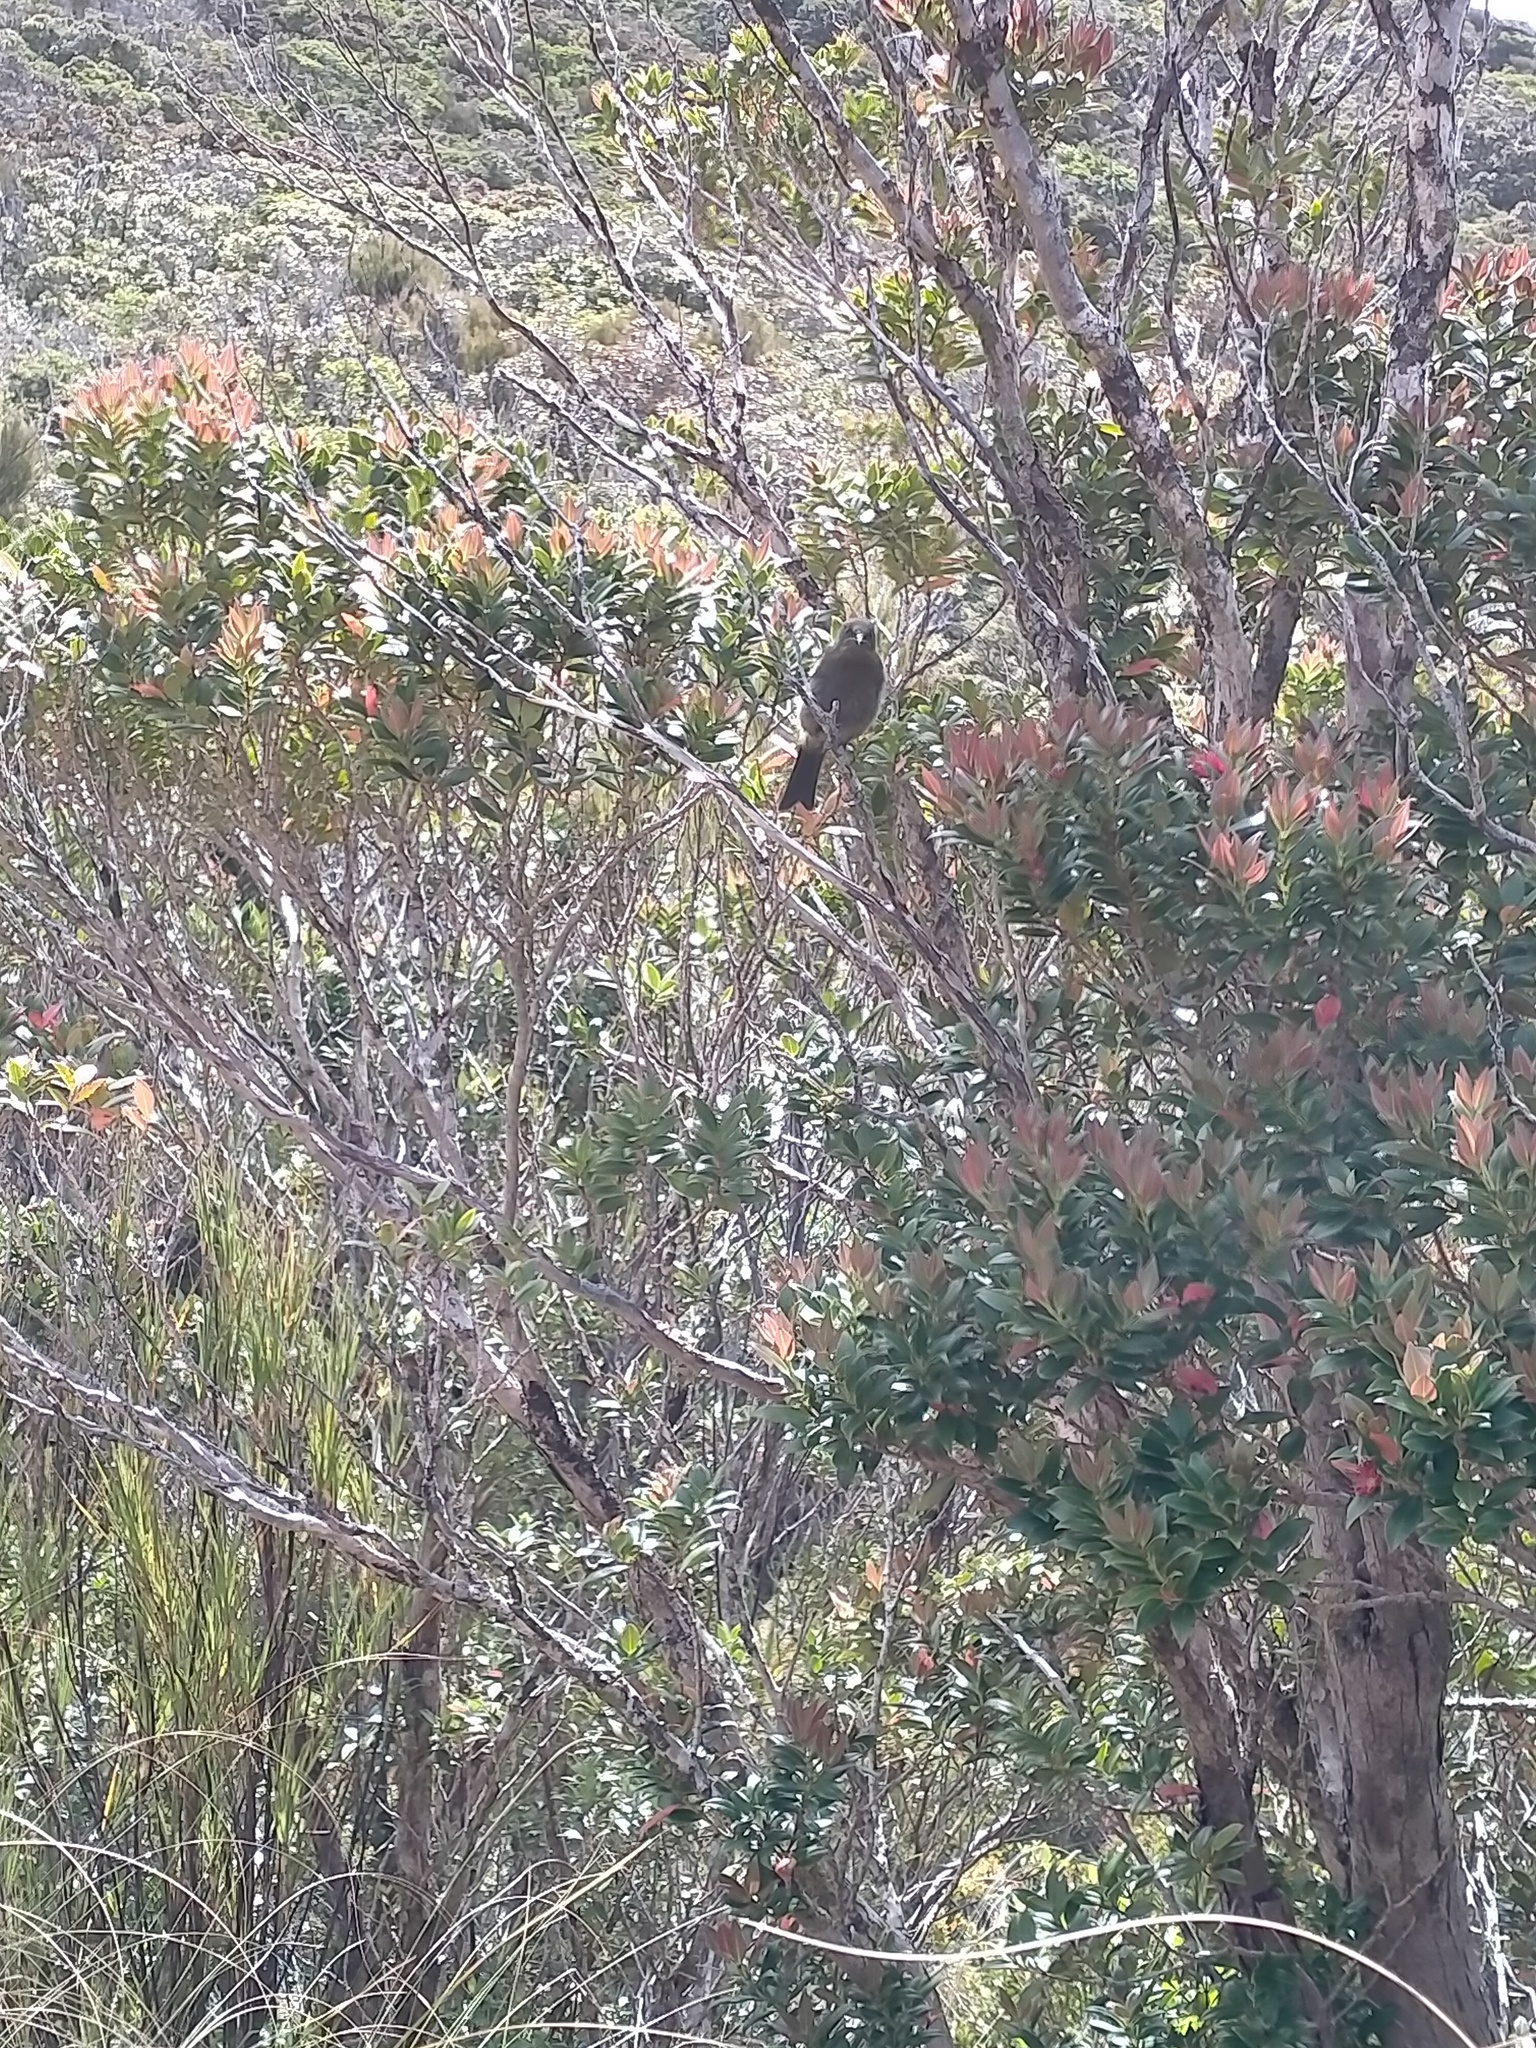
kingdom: Animalia
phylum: Chordata
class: Aves
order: Passeriformes
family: Meliphagidae
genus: Anthornis
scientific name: Anthornis melanura
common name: New zealand bellbird
